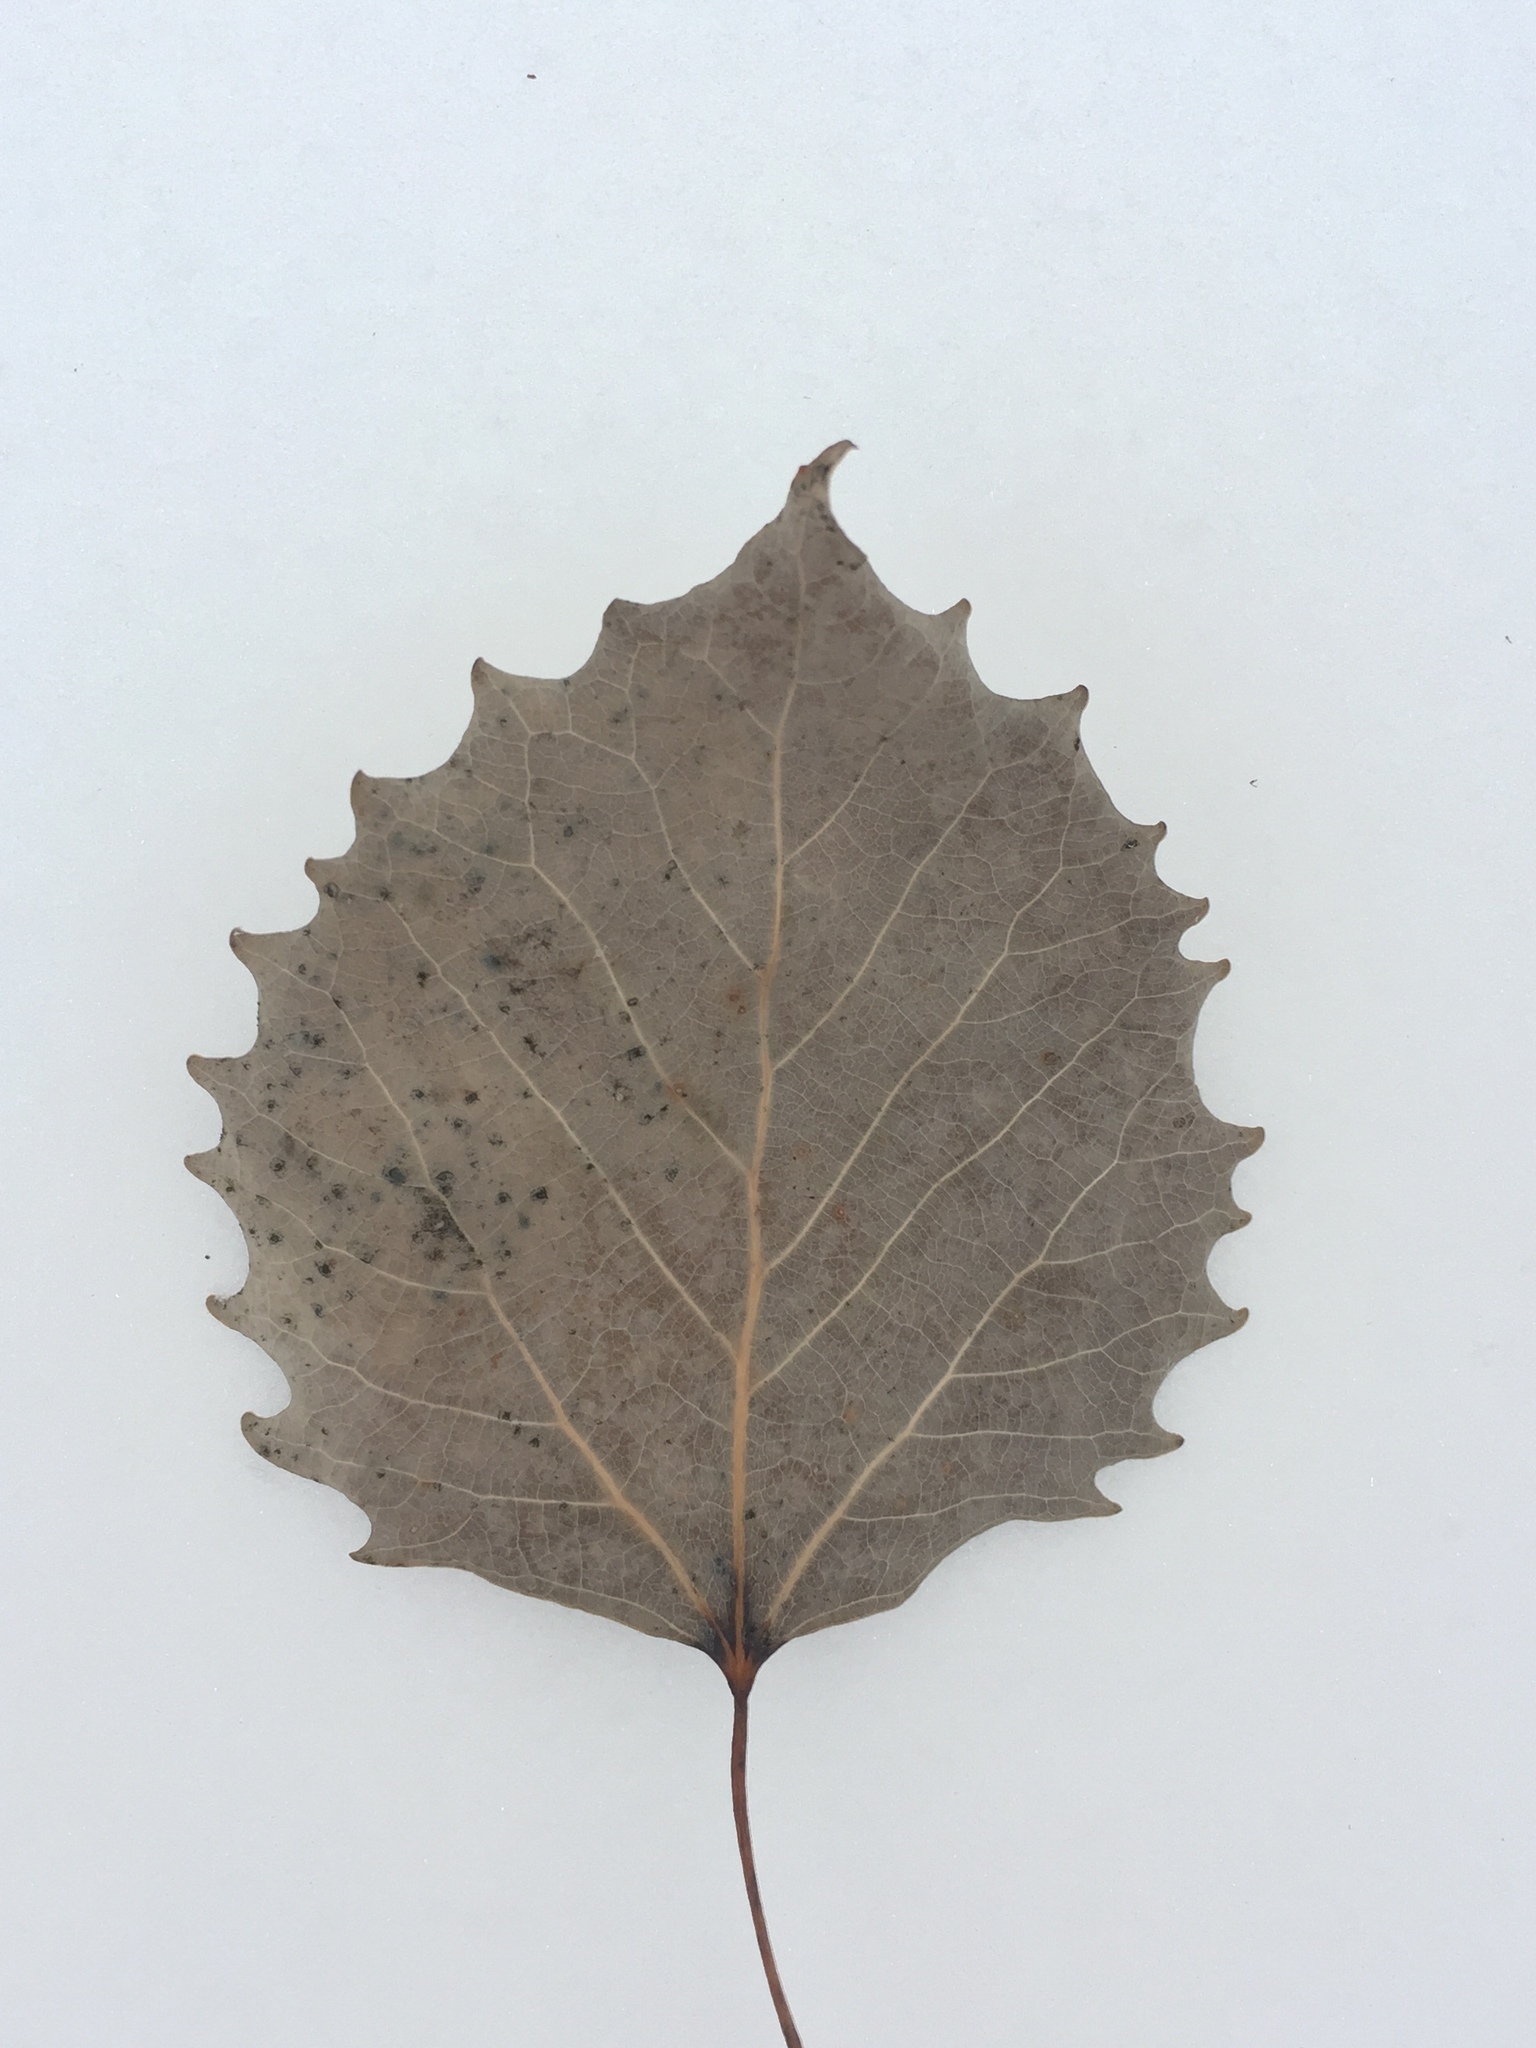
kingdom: Plantae
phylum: Tracheophyta
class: Magnoliopsida
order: Malpighiales
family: Salicaceae
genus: Populus
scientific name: Populus grandidentata
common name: Bigtooth aspen
